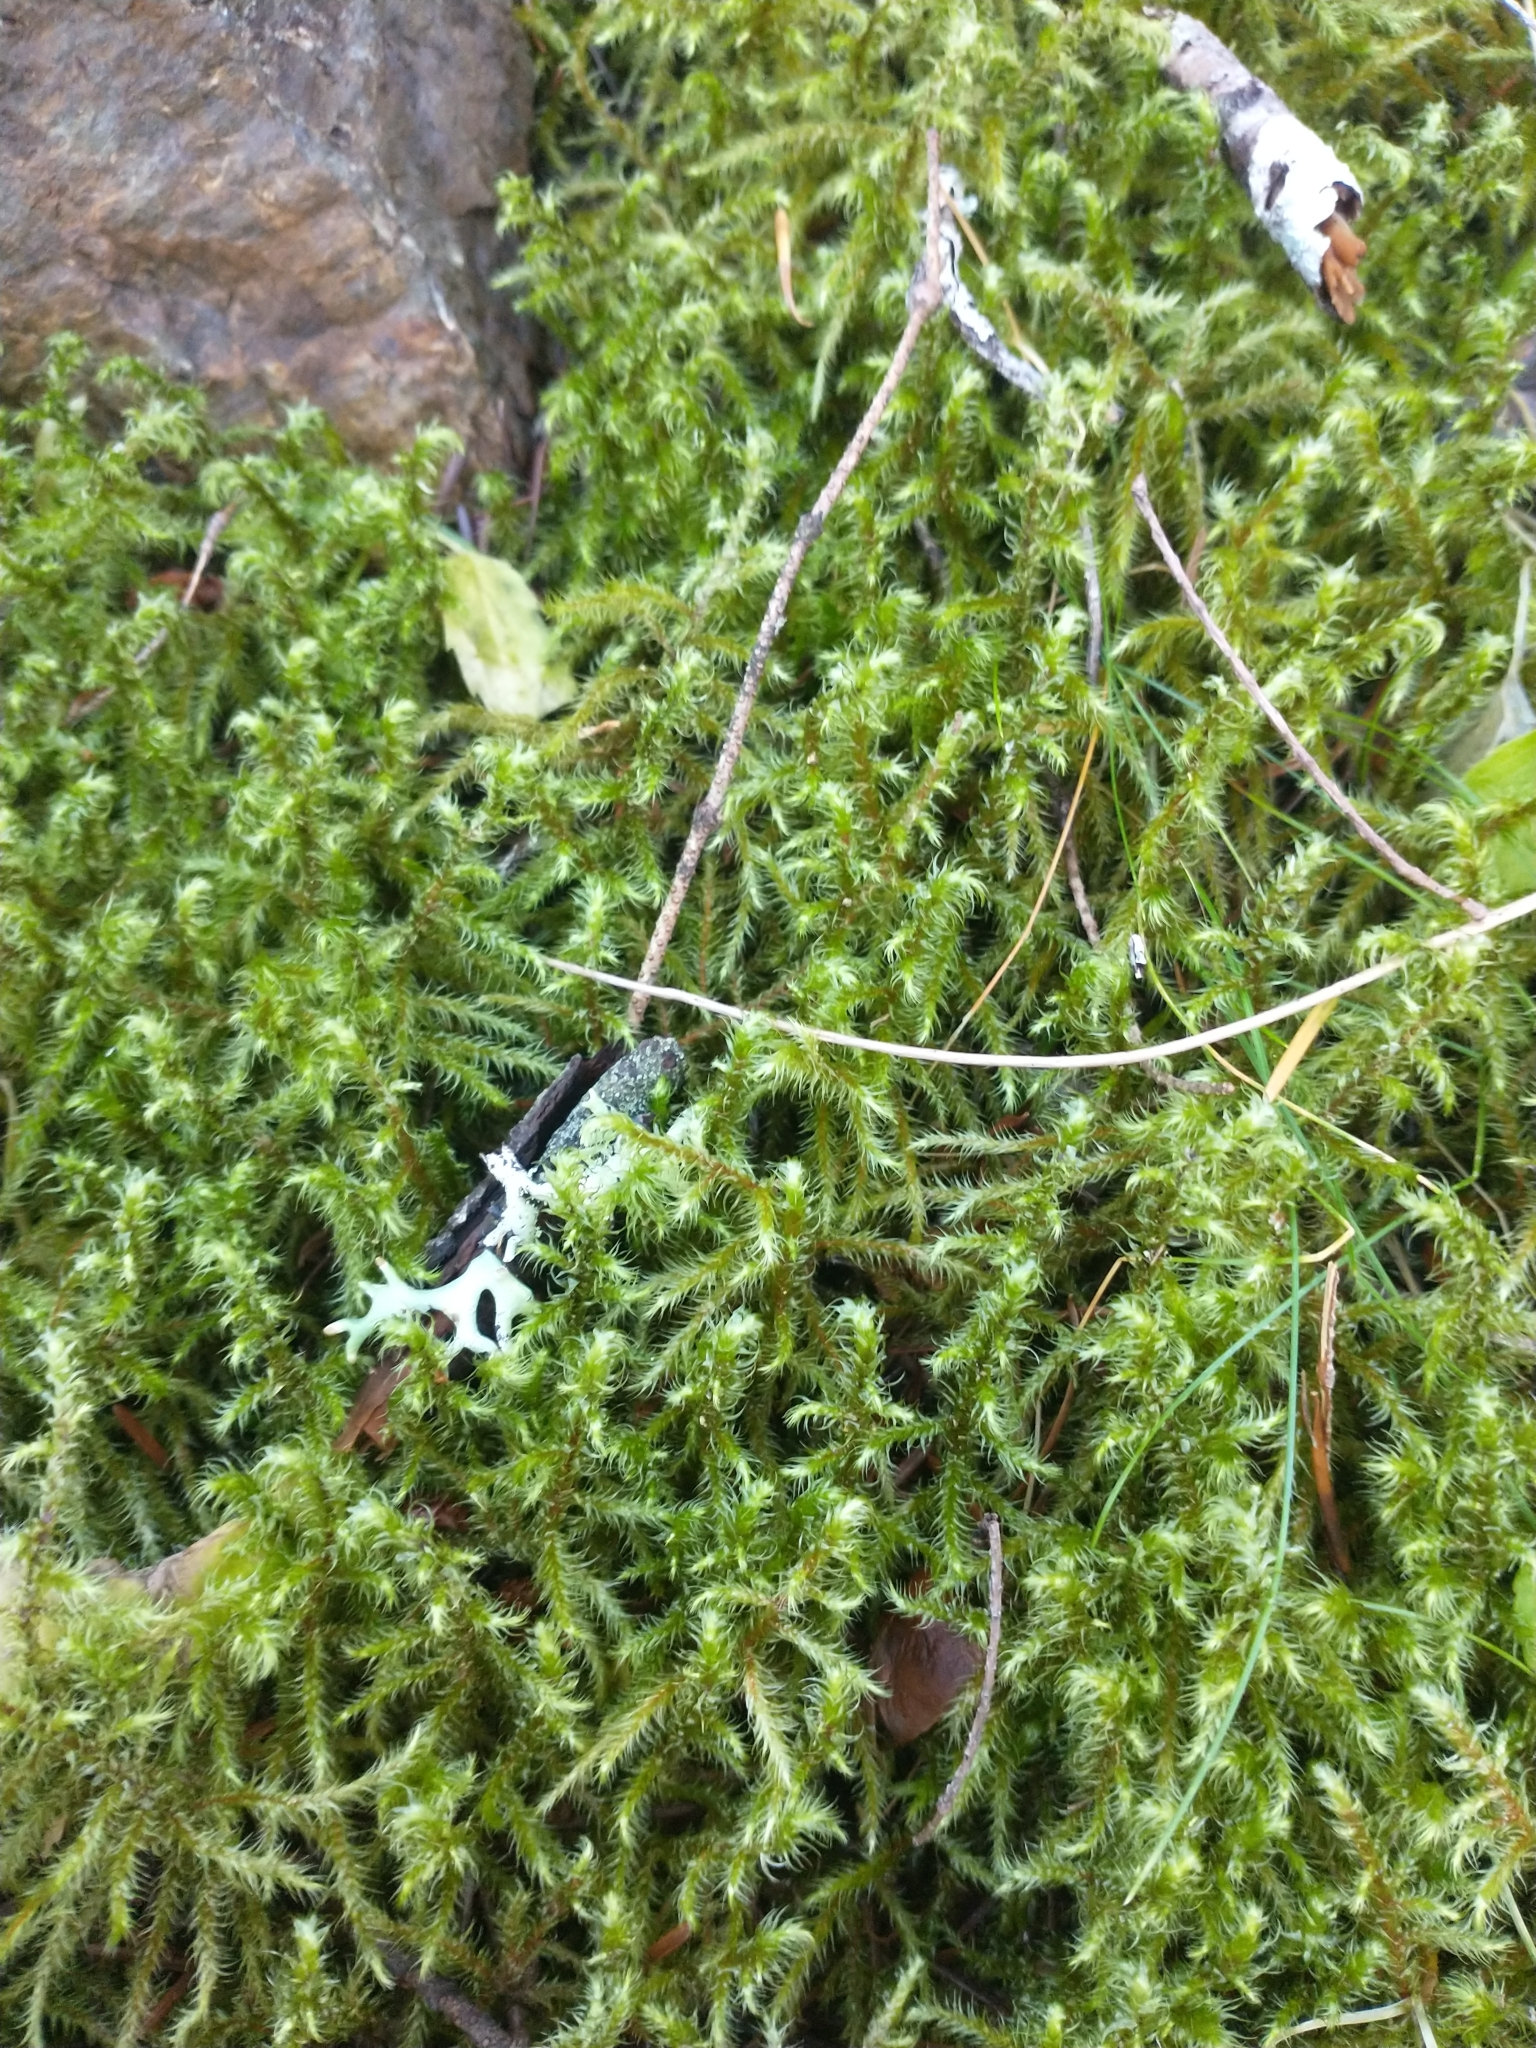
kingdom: Plantae
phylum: Bryophyta
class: Bryopsida
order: Hypnales
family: Hylocomiaceae
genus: Hylocomiadelphus
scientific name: Hylocomiadelphus triquetrus
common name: Rough goose neck moss
